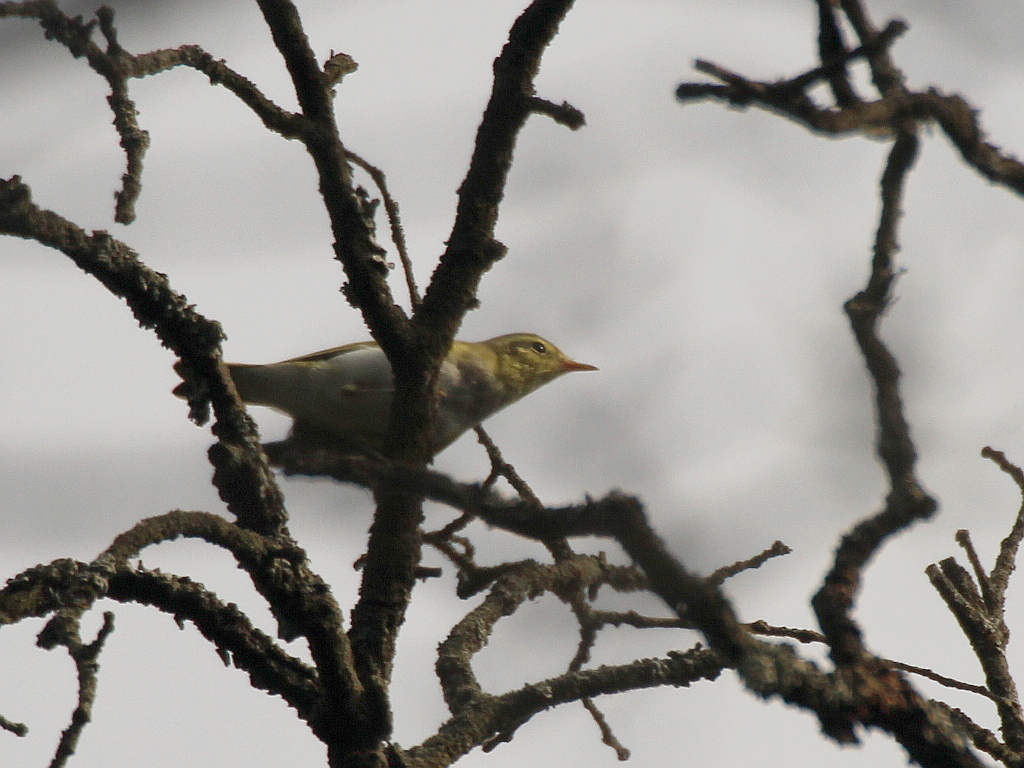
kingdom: Animalia
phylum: Chordata
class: Aves
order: Passeriformes
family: Phylloscopidae
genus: Phylloscopus
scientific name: Phylloscopus sibillatrix
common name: Wood warbler
